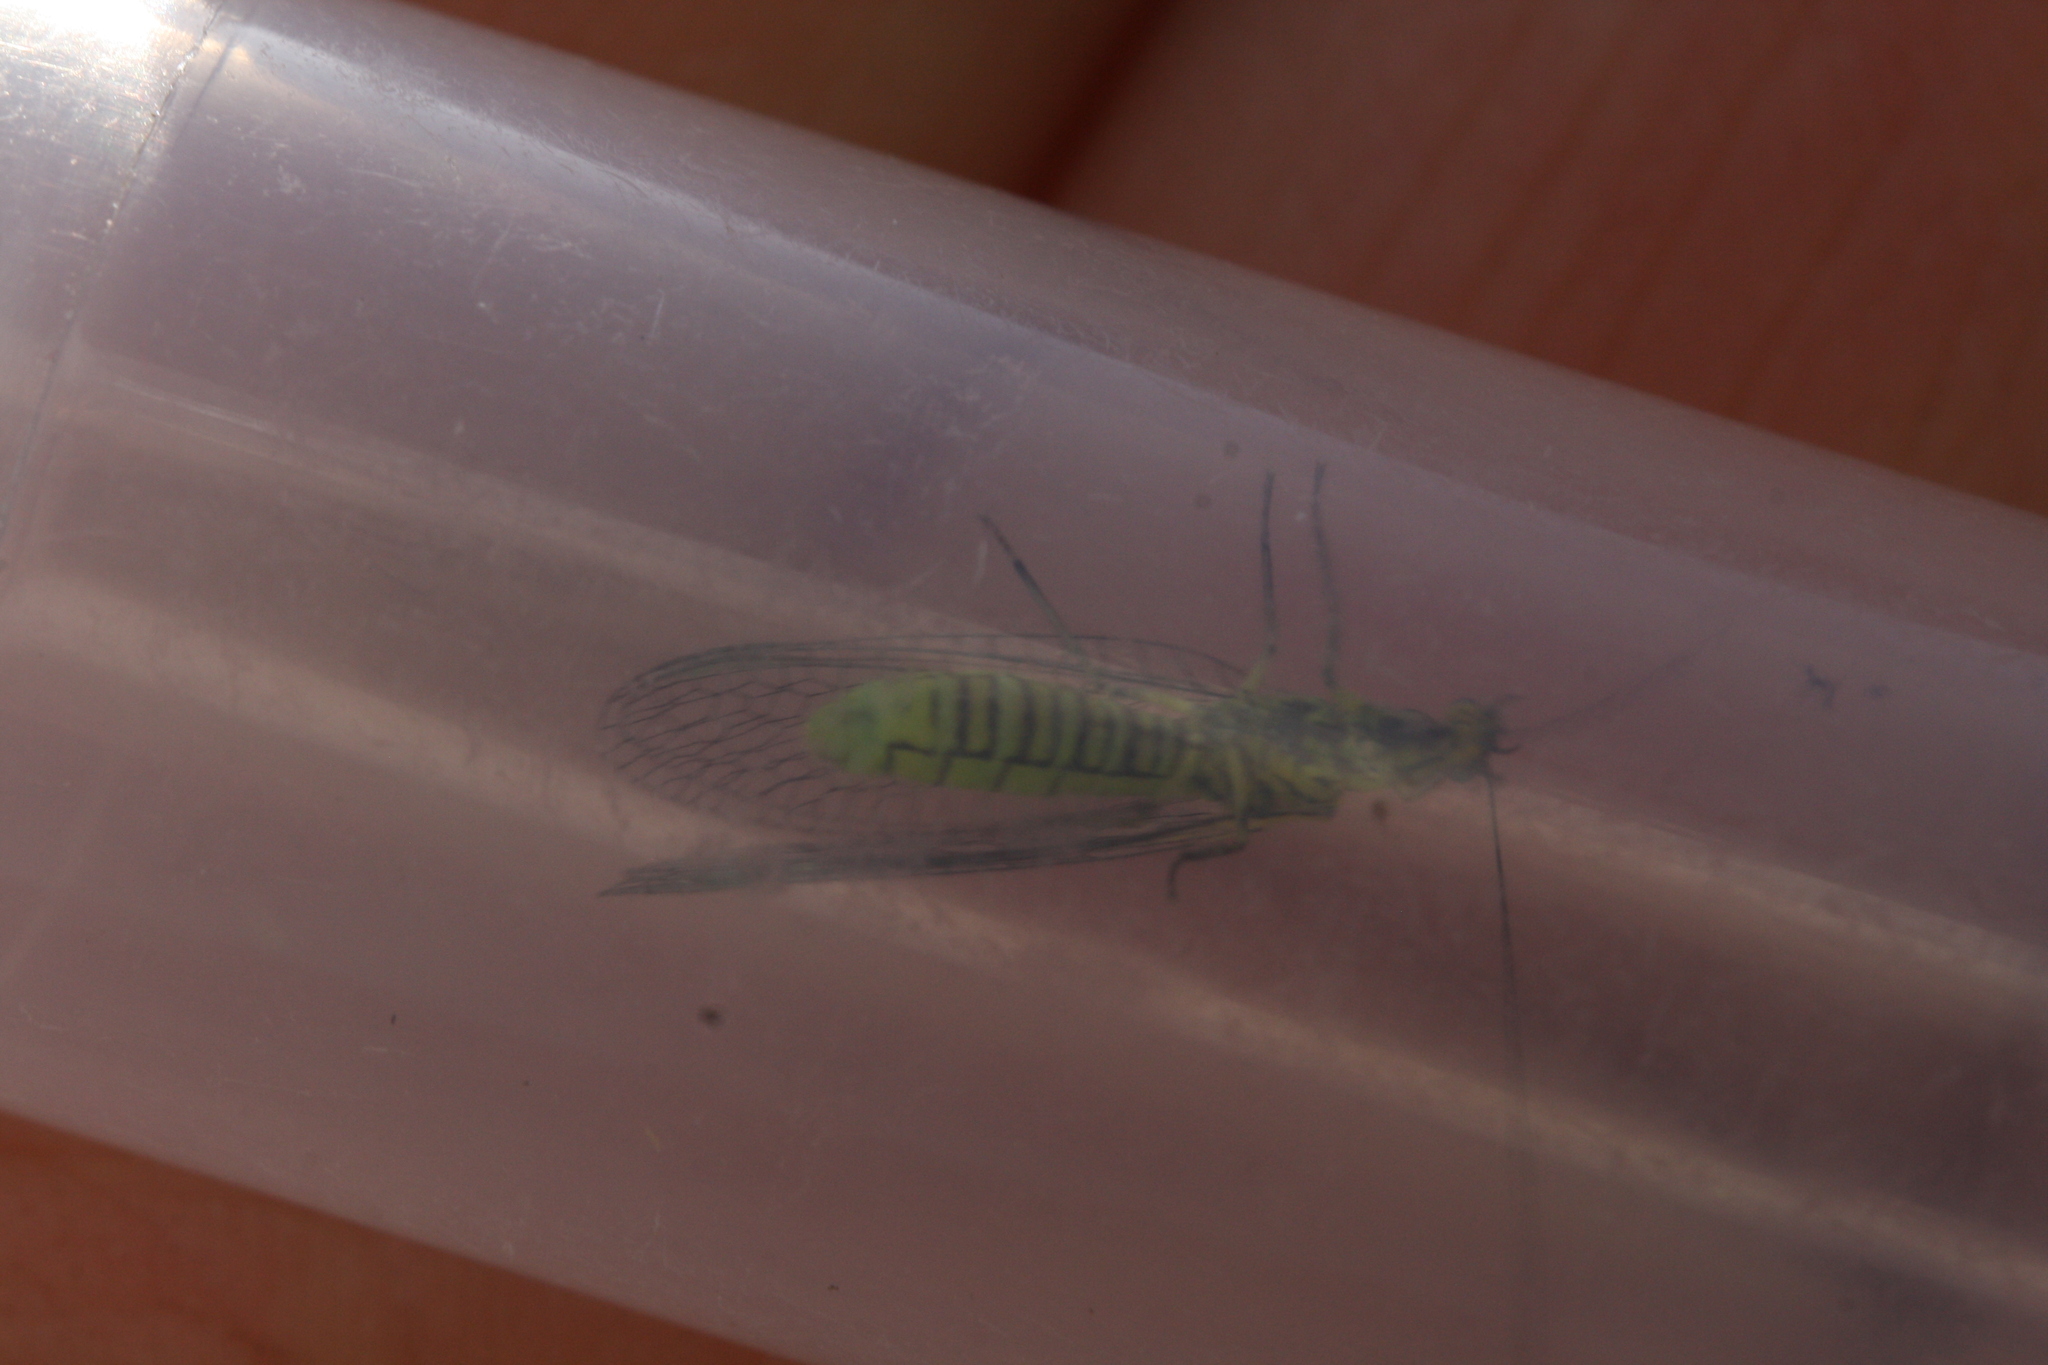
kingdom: Animalia
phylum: Arthropoda
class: Insecta
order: Neuroptera
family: Chrysopidae
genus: Hypochrysa
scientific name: Hypochrysa elegans
